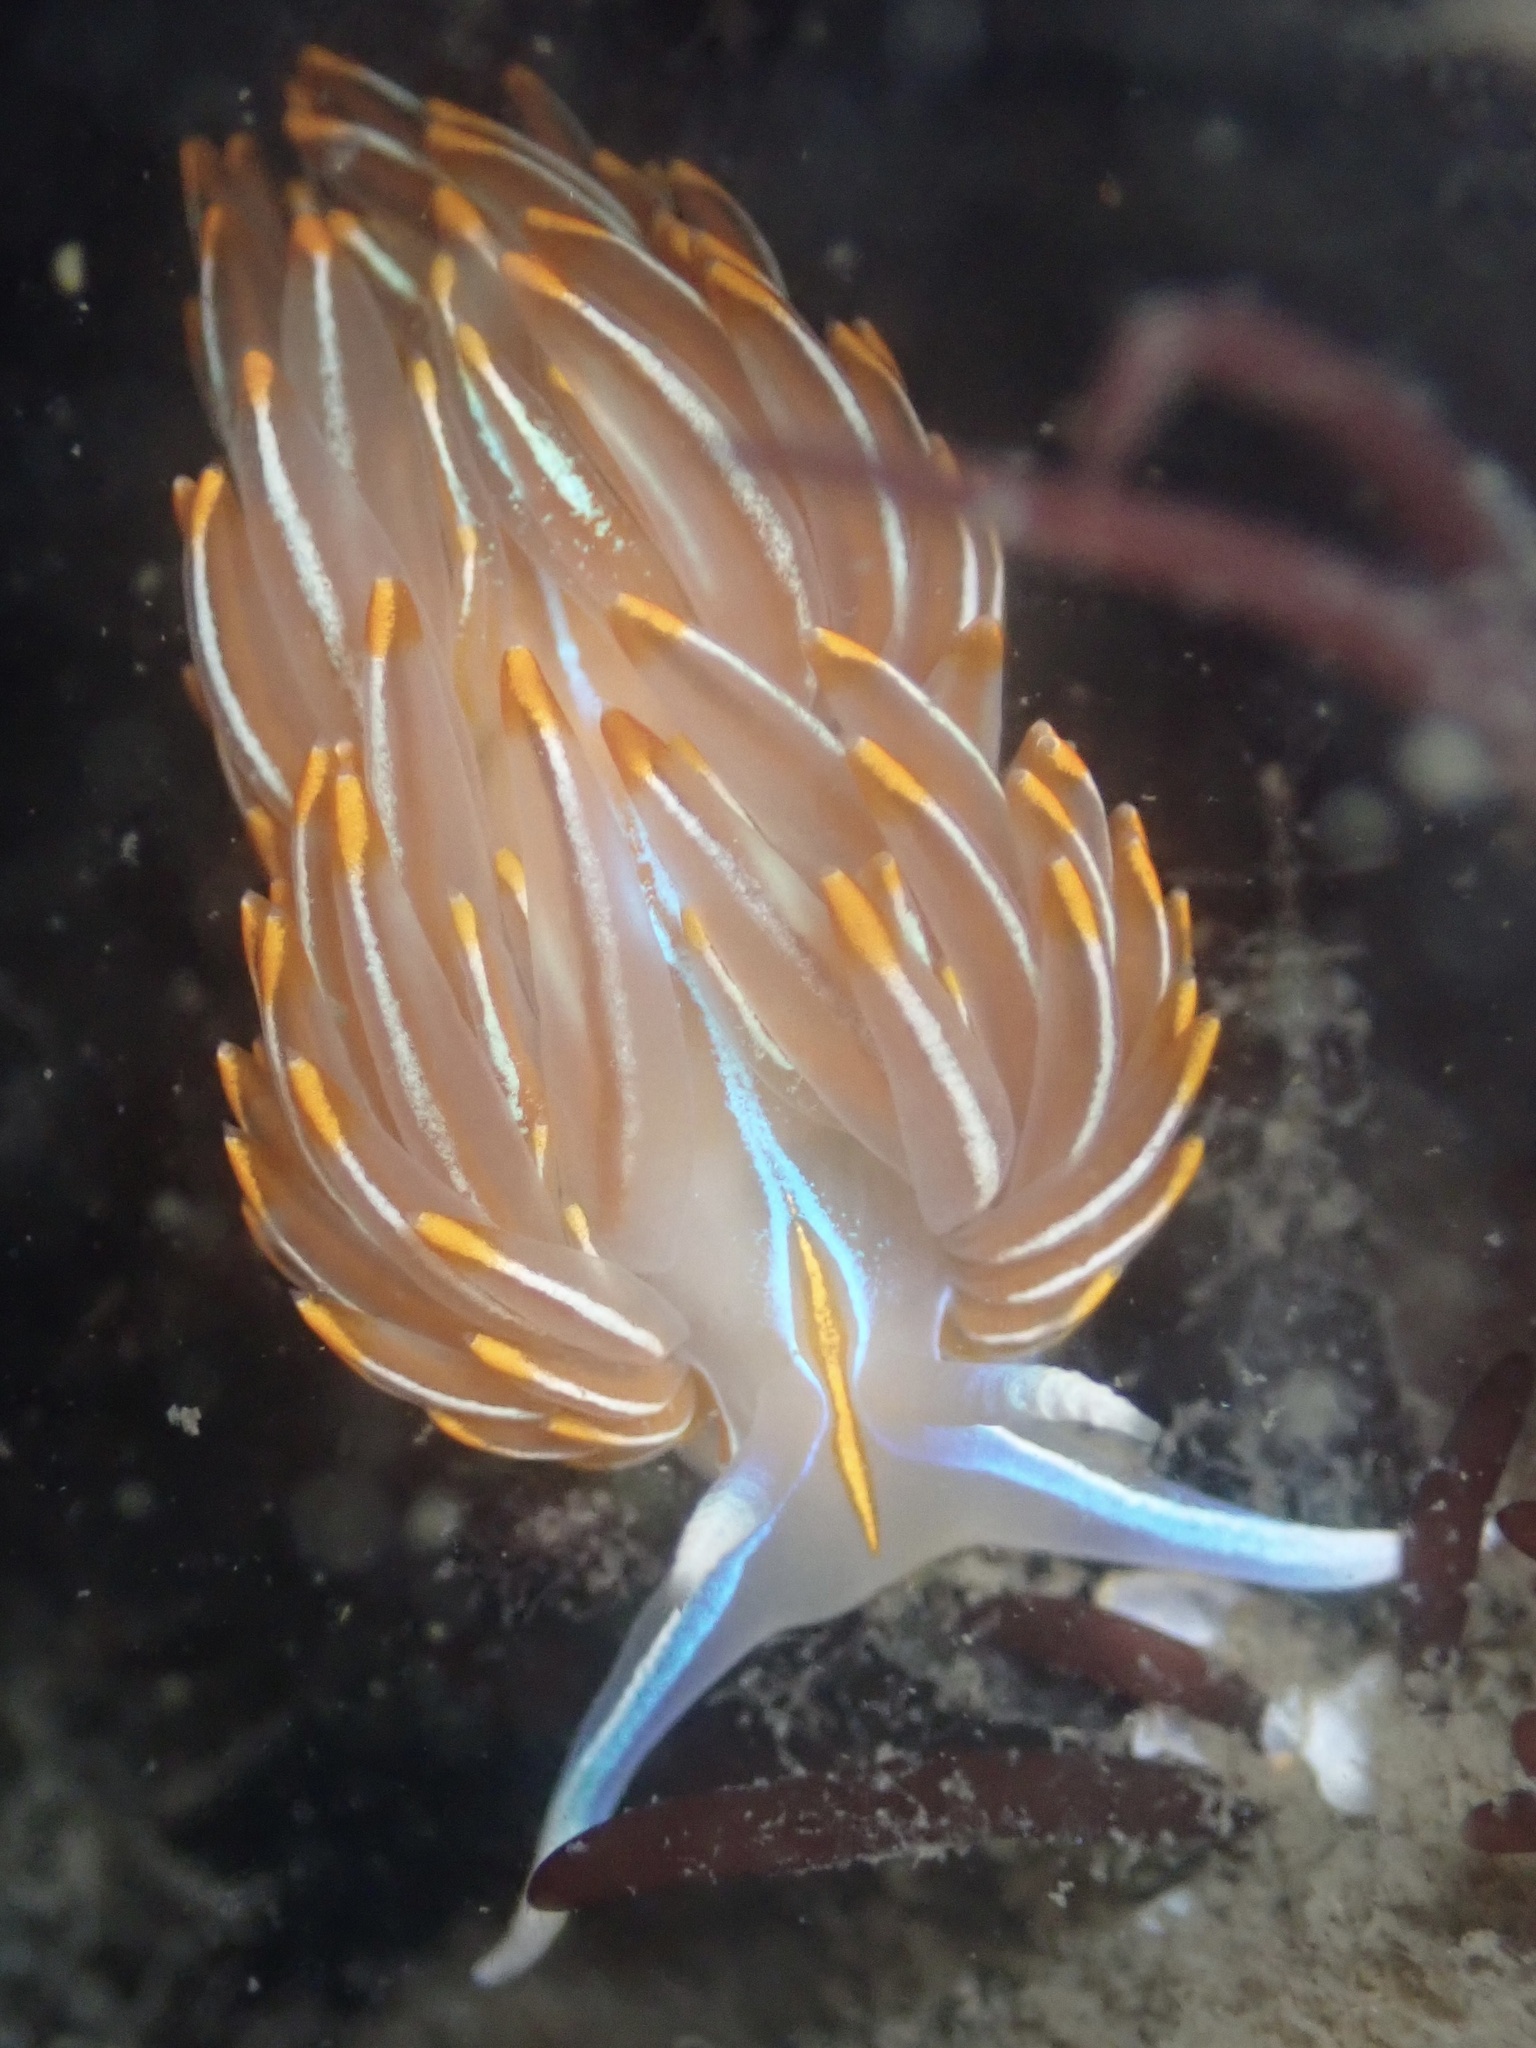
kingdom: Animalia
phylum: Mollusca
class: Gastropoda
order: Nudibranchia
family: Myrrhinidae
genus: Hermissenda
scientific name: Hermissenda crassicornis
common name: Hermissenda
